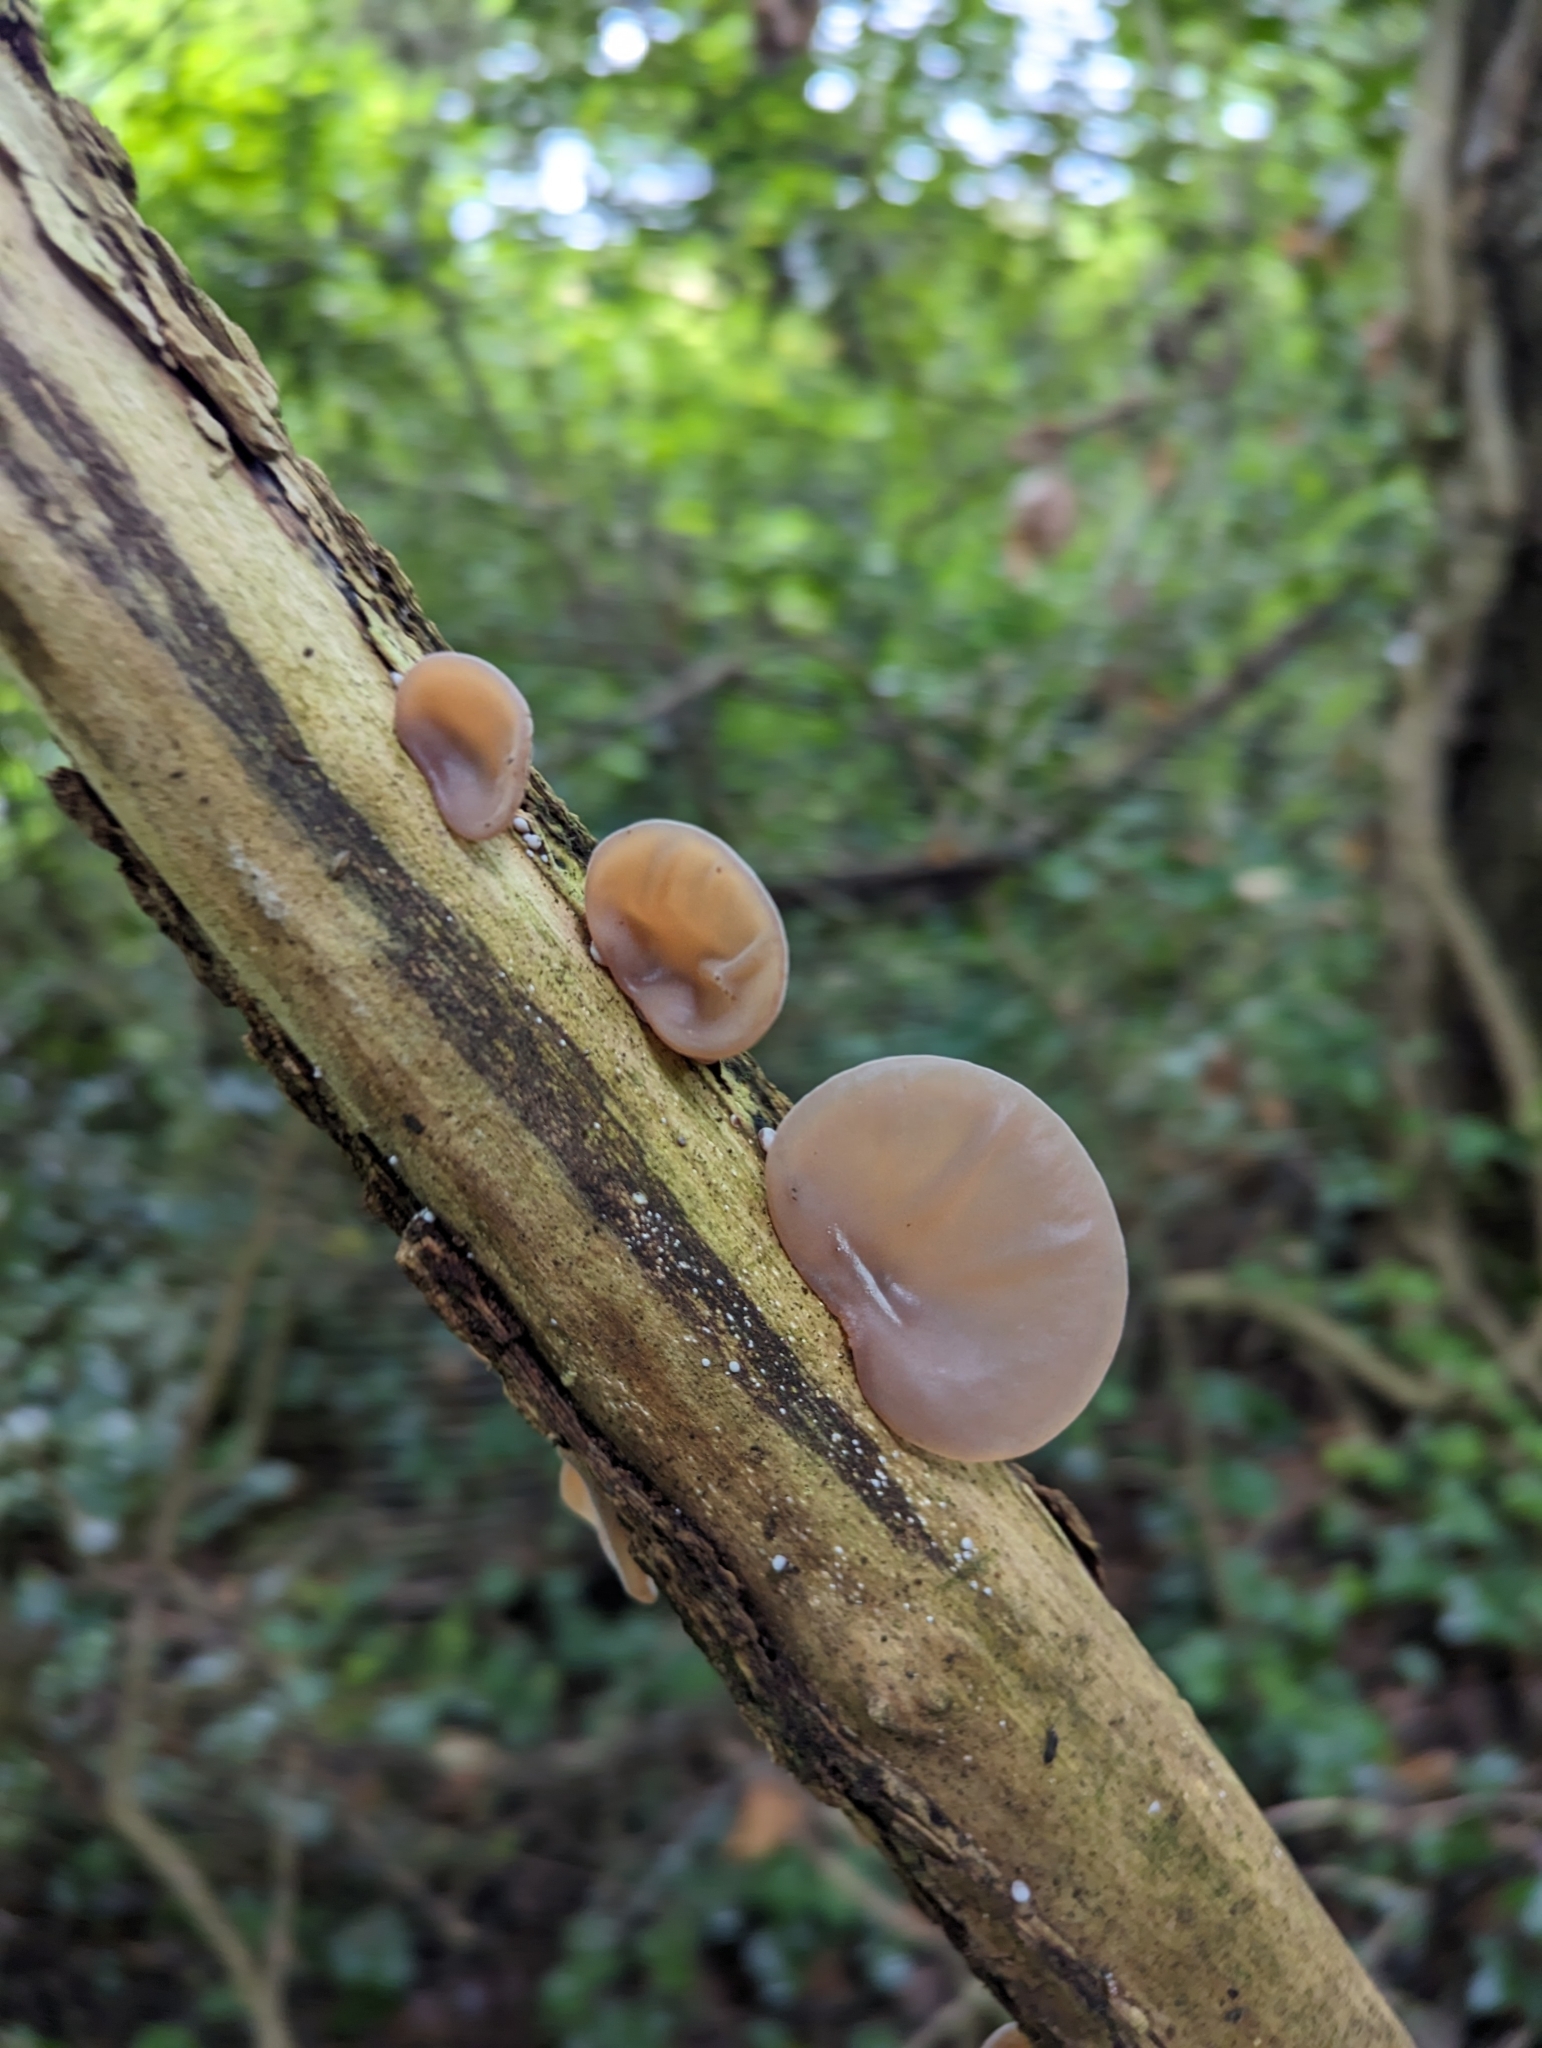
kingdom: Fungi
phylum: Basidiomycota
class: Agaricomycetes
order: Auriculariales
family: Auriculariaceae
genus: Auricularia
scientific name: Auricularia auricula-judae
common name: Jelly ear
